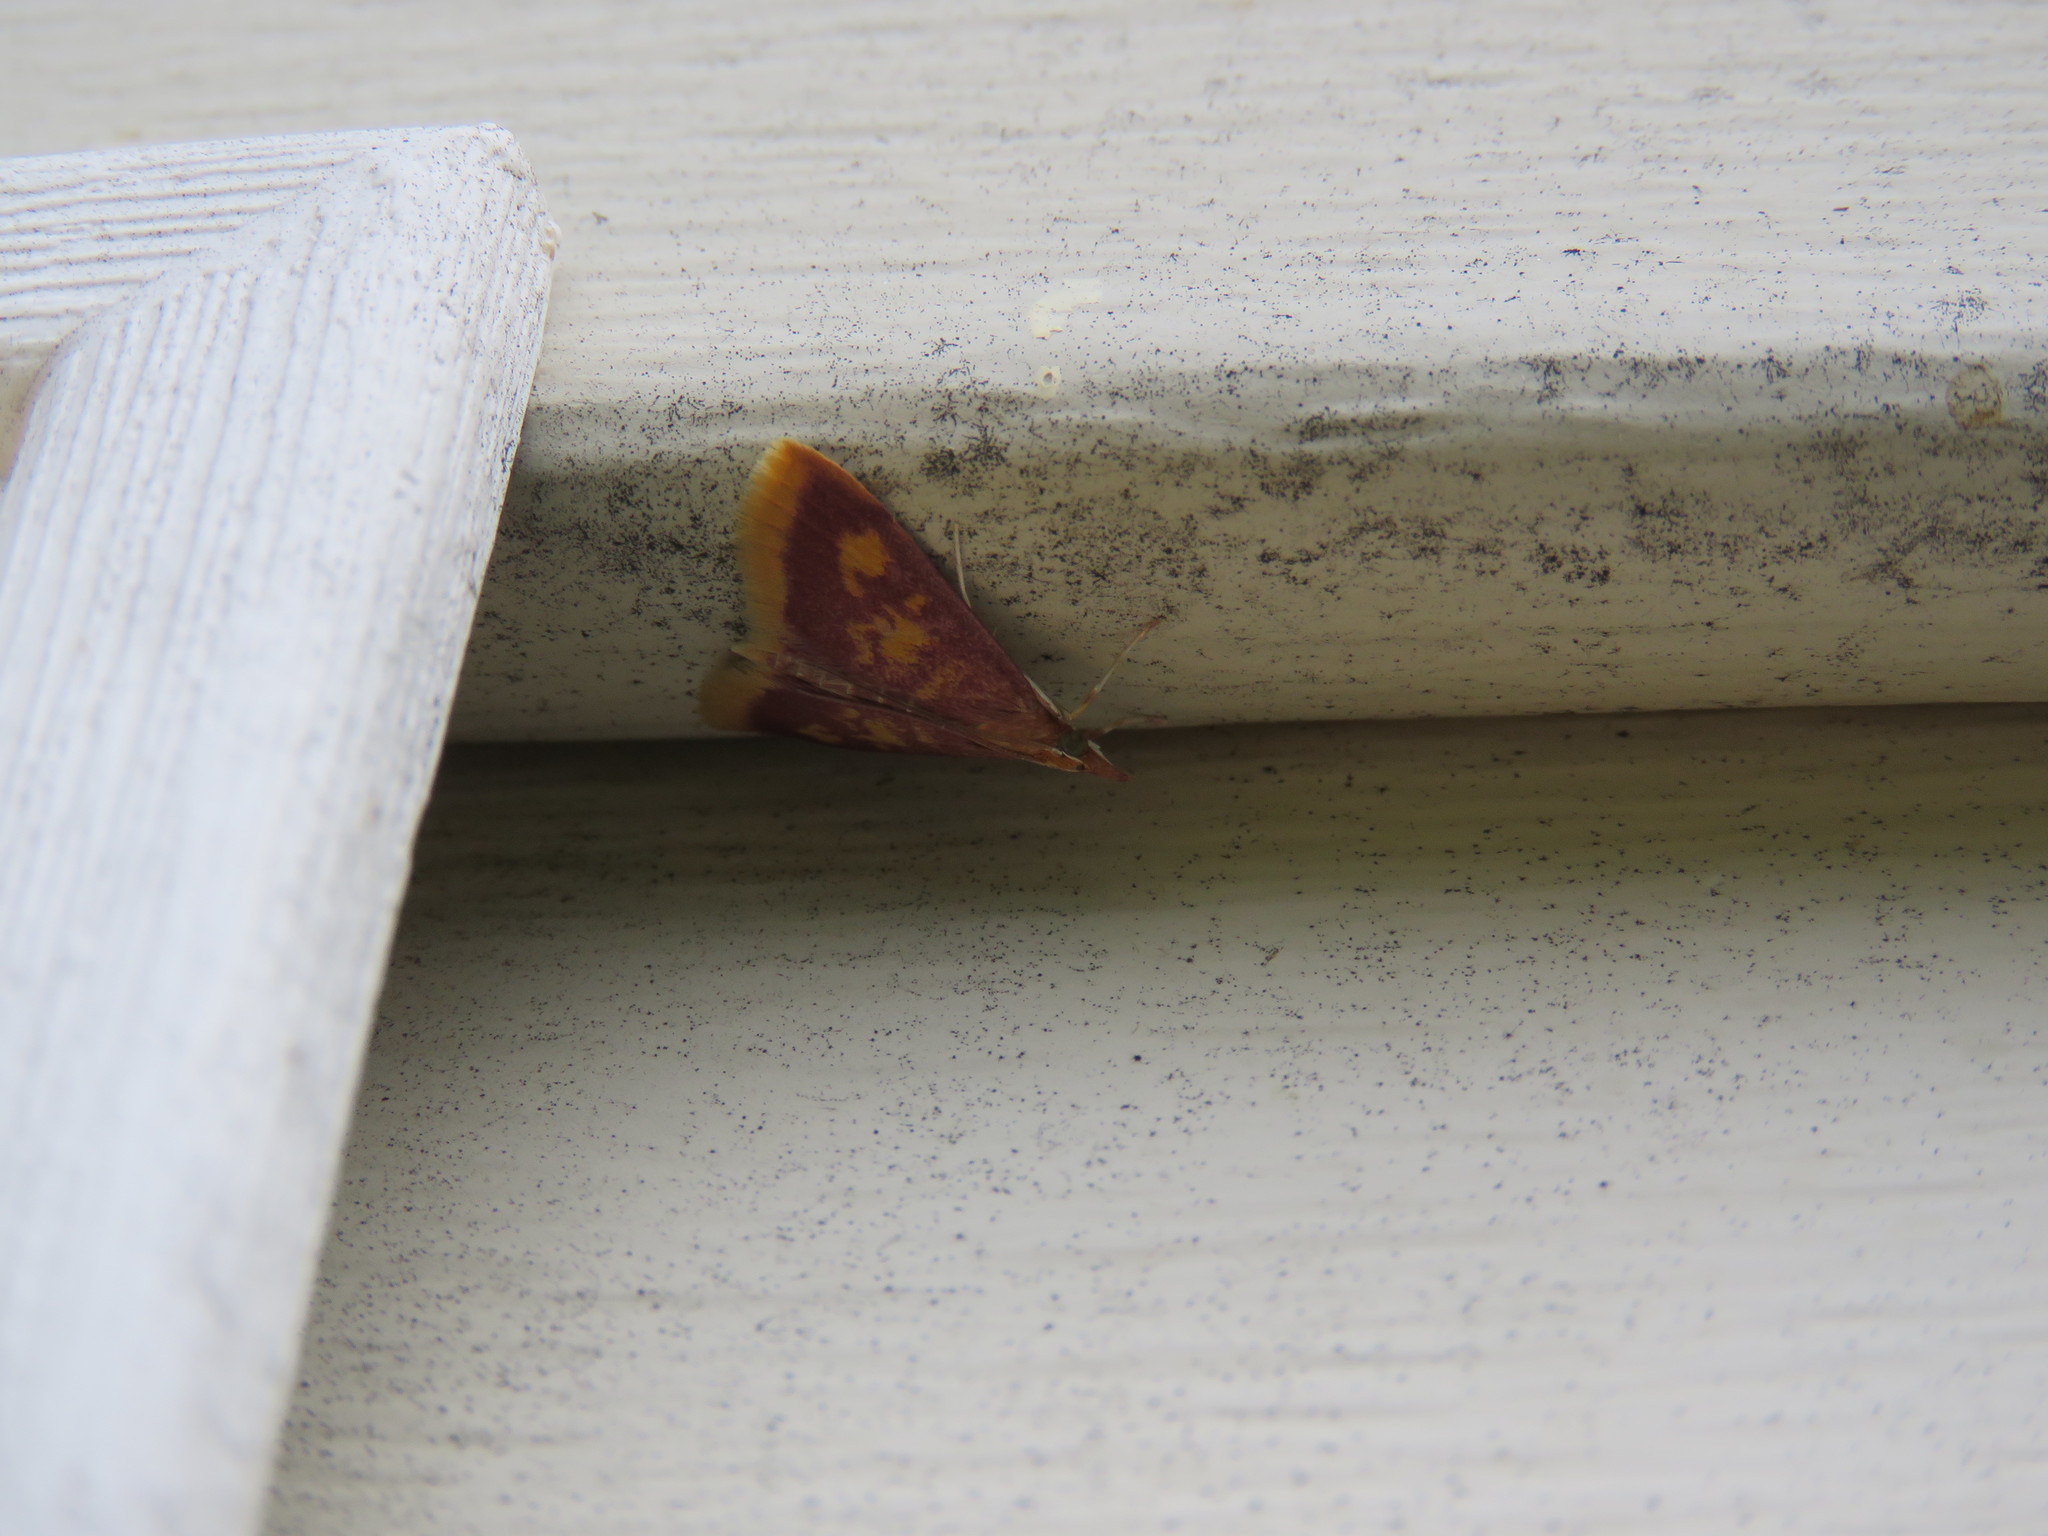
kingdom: Animalia
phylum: Arthropoda
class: Insecta
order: Lepidoptera
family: Crambidae
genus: Pyrausta
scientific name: Pyrausta acrionalis
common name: Mint-loving pyrausta moth
